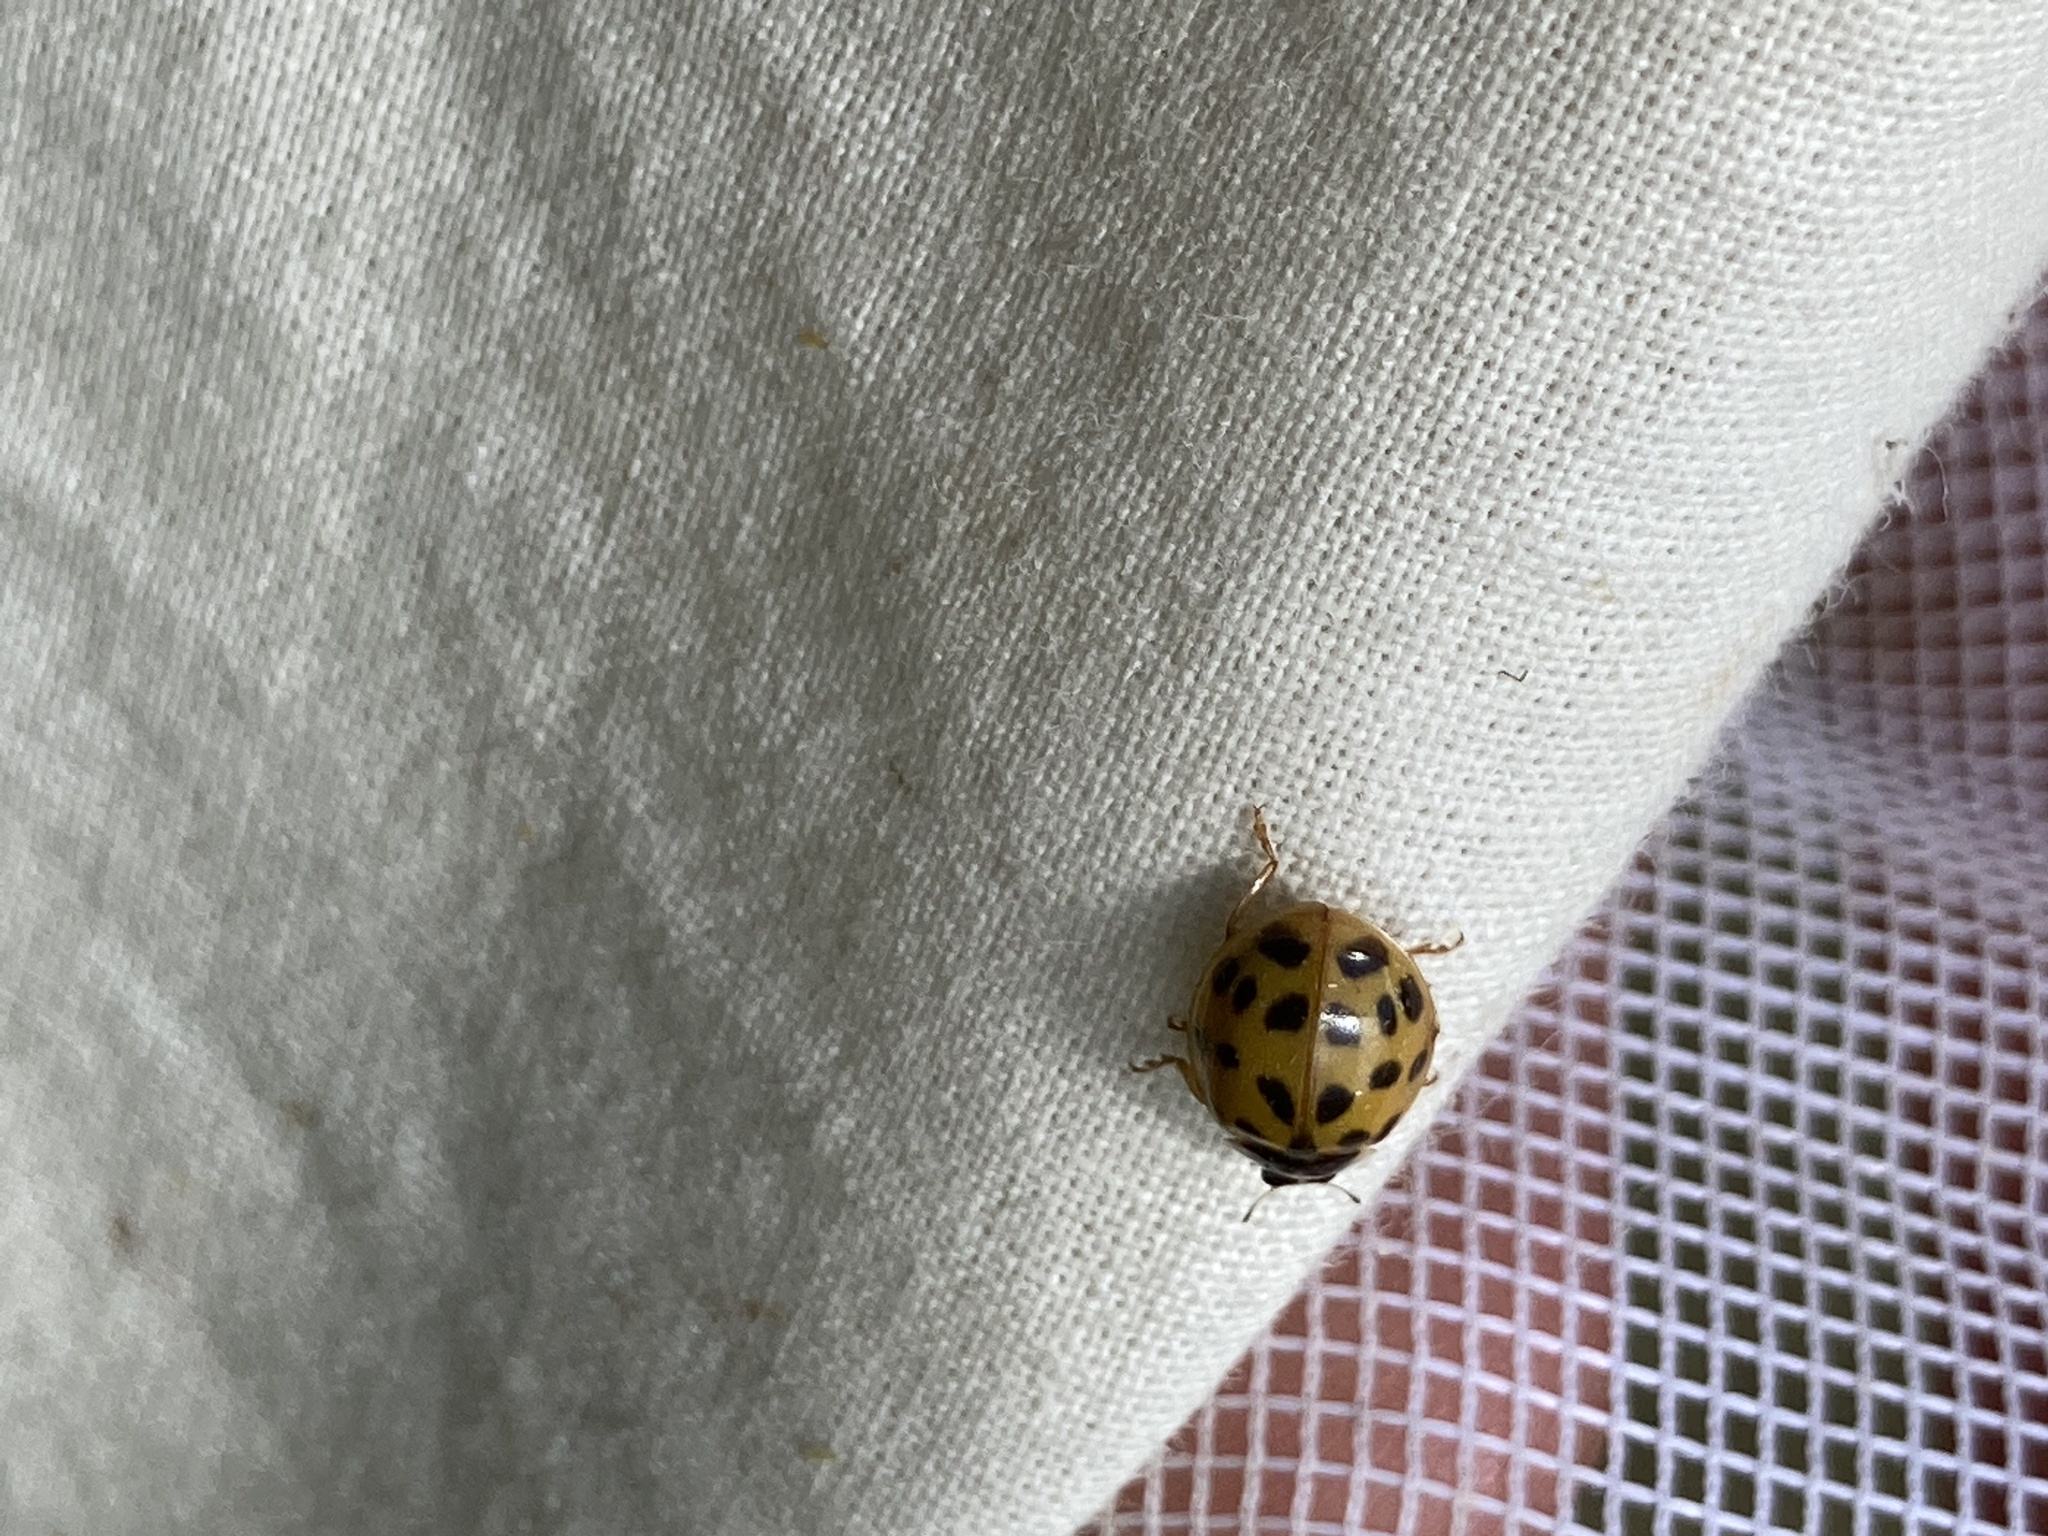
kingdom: Animalia
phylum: Arthropoda
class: Insecta
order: Coleoptera
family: Coccinellidae
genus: Harmonia
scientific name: Harmonia axyridis
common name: Harlequin ladybird
